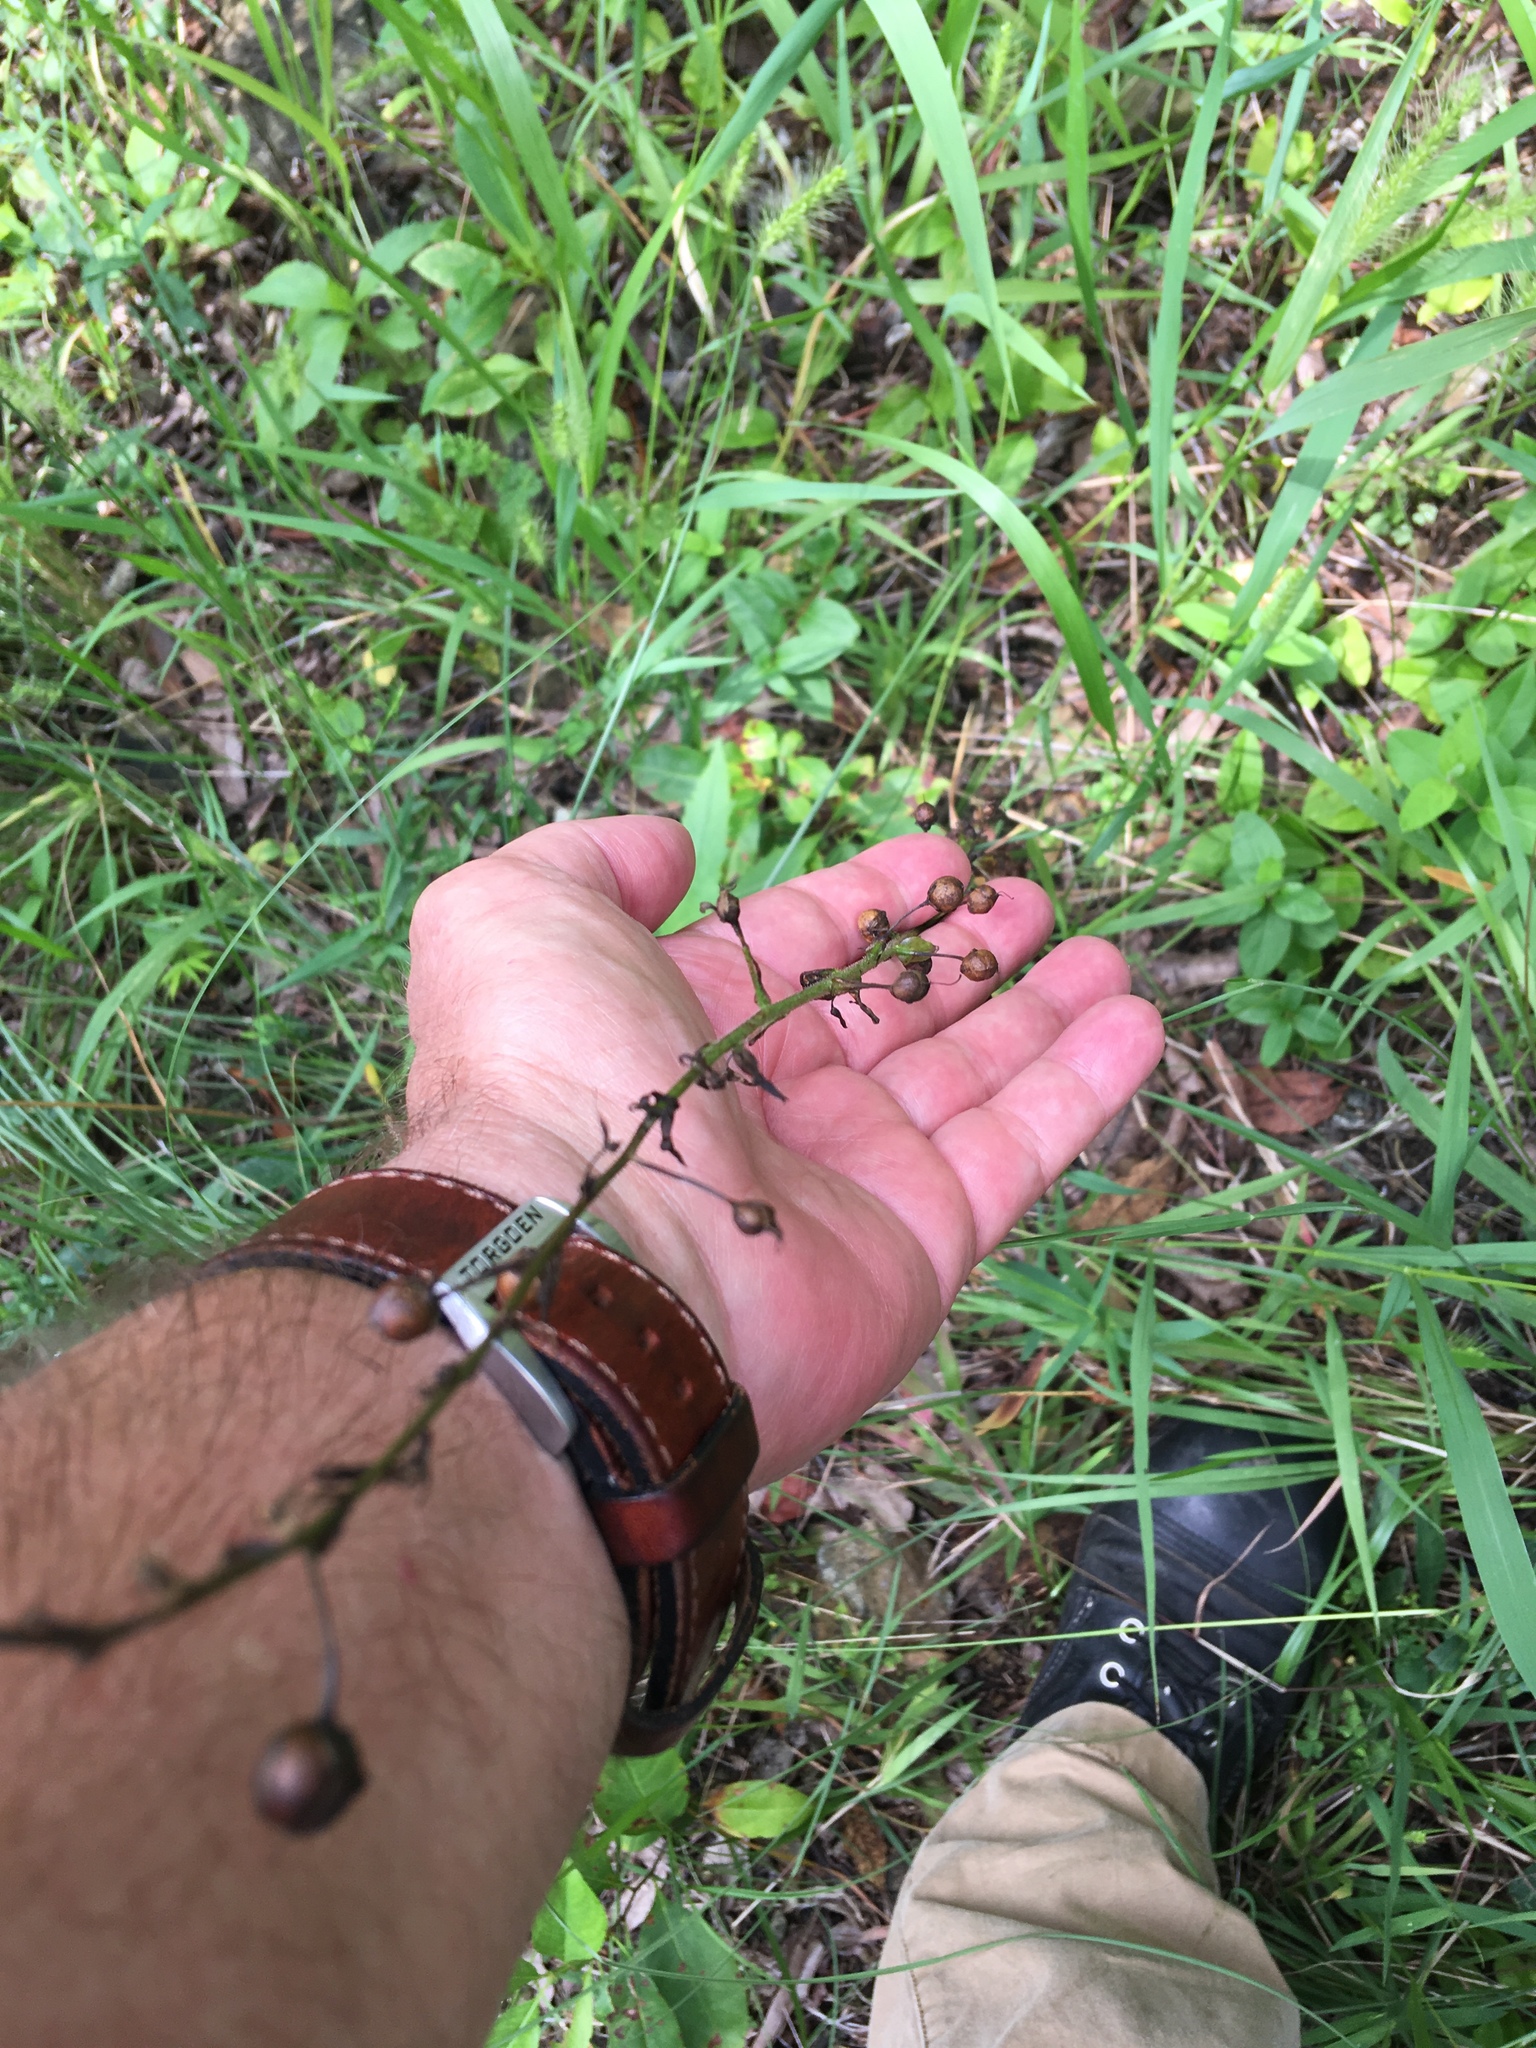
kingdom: Plantae
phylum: Tracheophyta
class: Magnoliopsida
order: Lamiales
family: Scrophulariaceae
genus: Verbascum
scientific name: Verbascum blattaria
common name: Moth mullein
